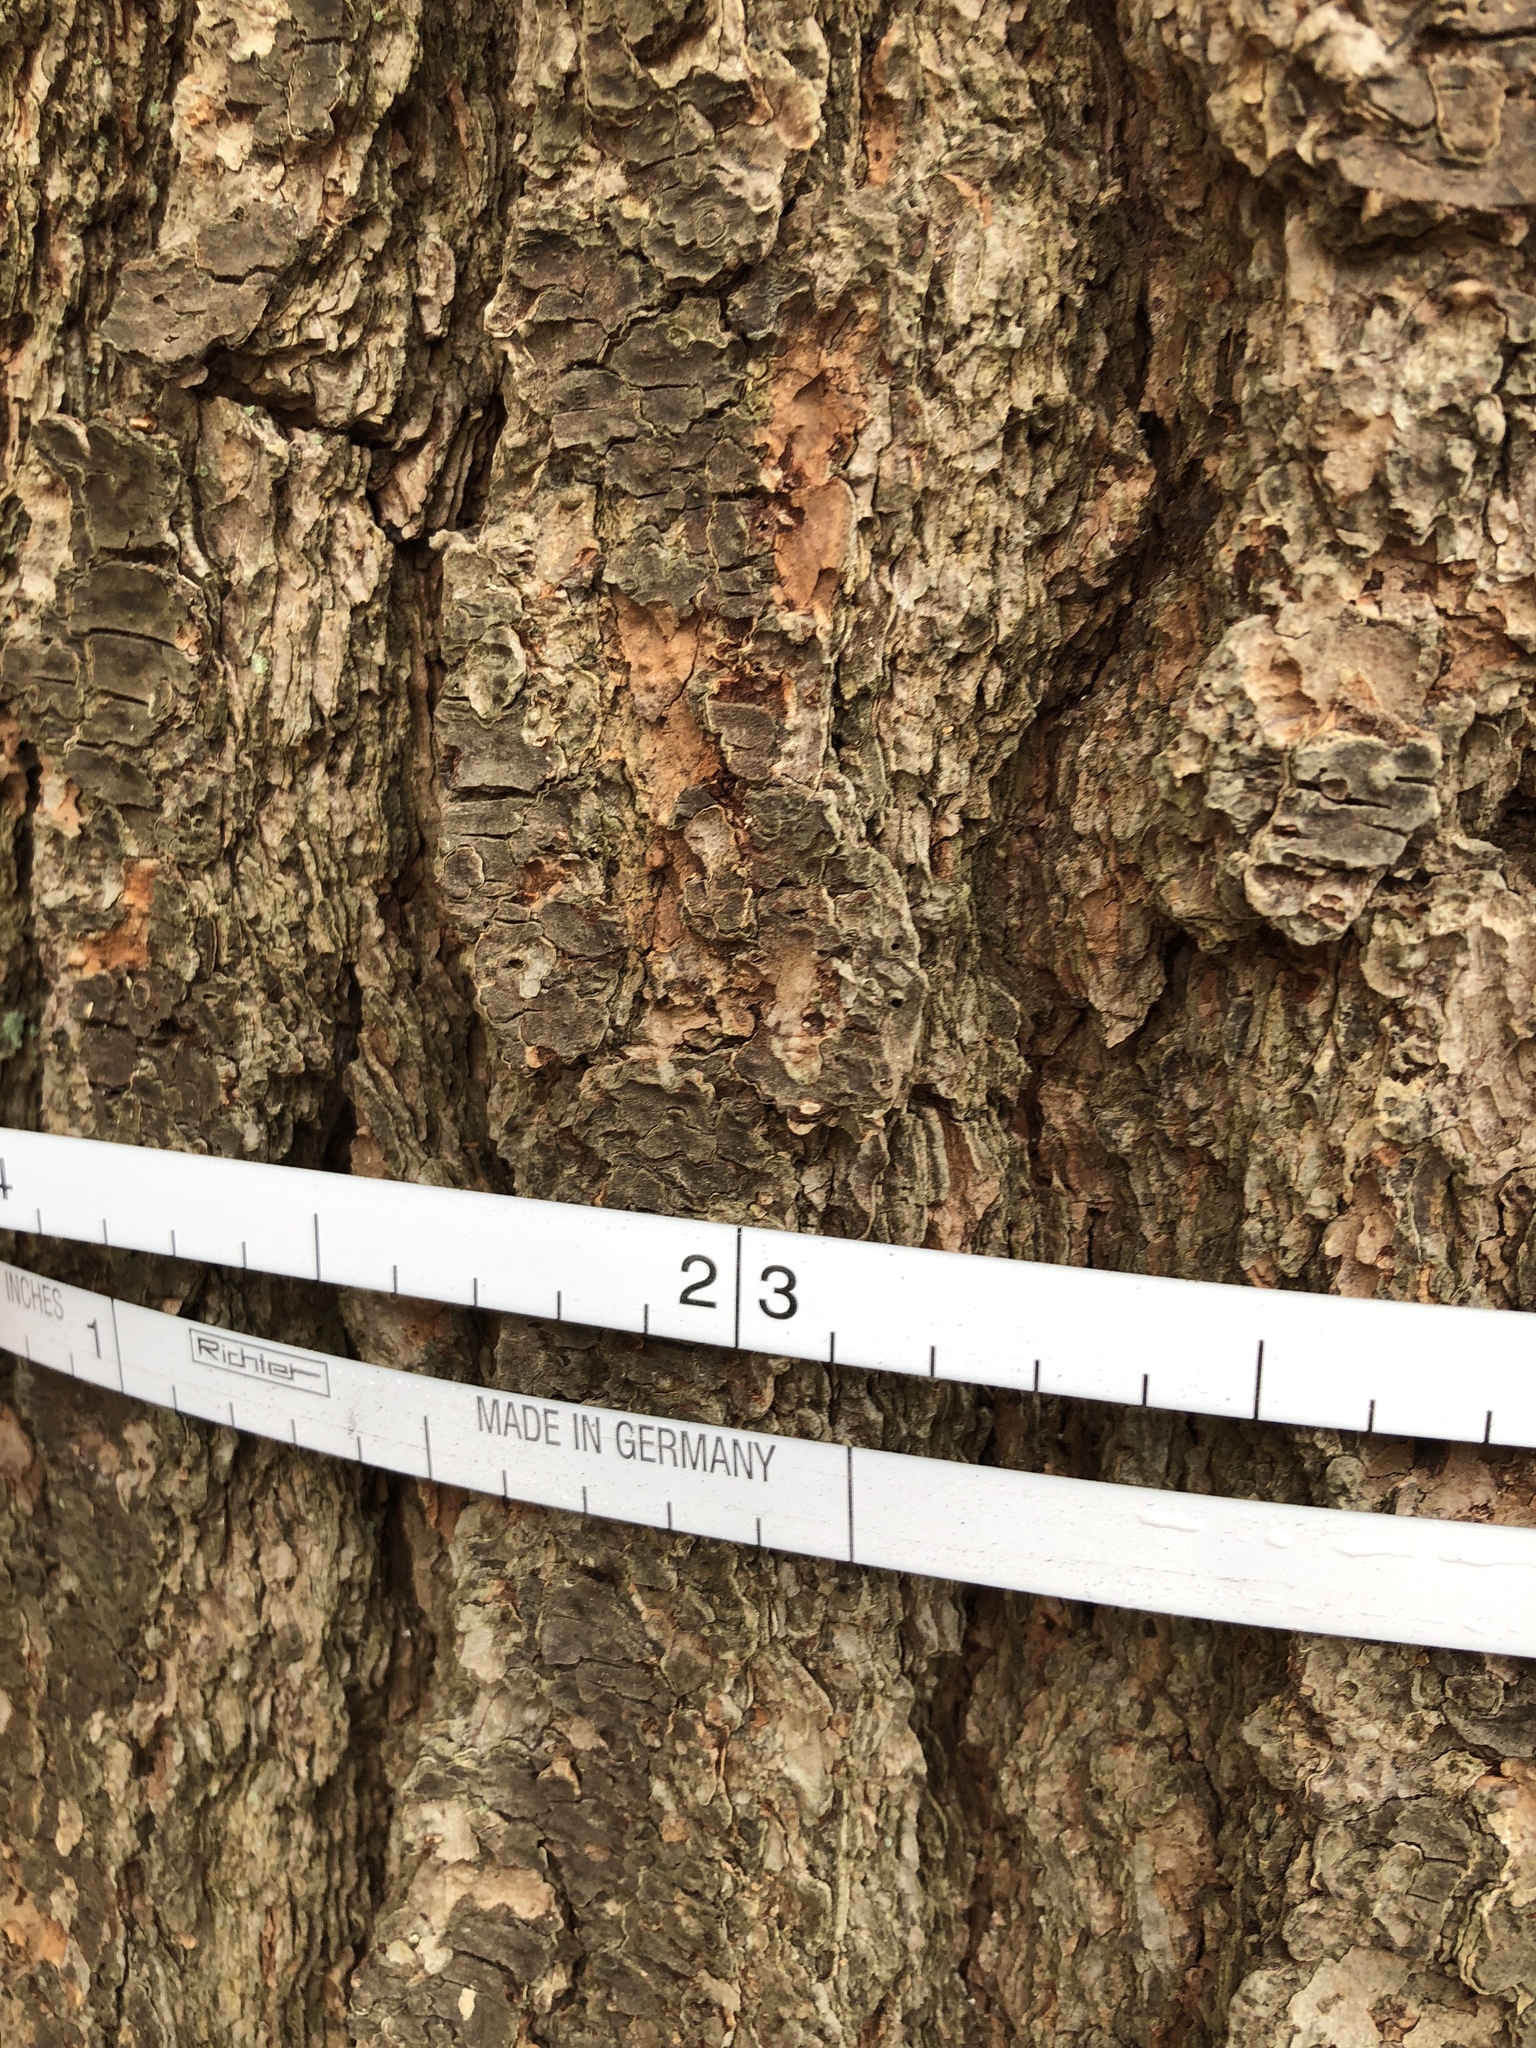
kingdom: Plantae
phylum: Tracheophyta
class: Pinopsida
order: Pinales
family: Pinaceae
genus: Pinus
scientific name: Pinus strobus
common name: Weymouth pine
